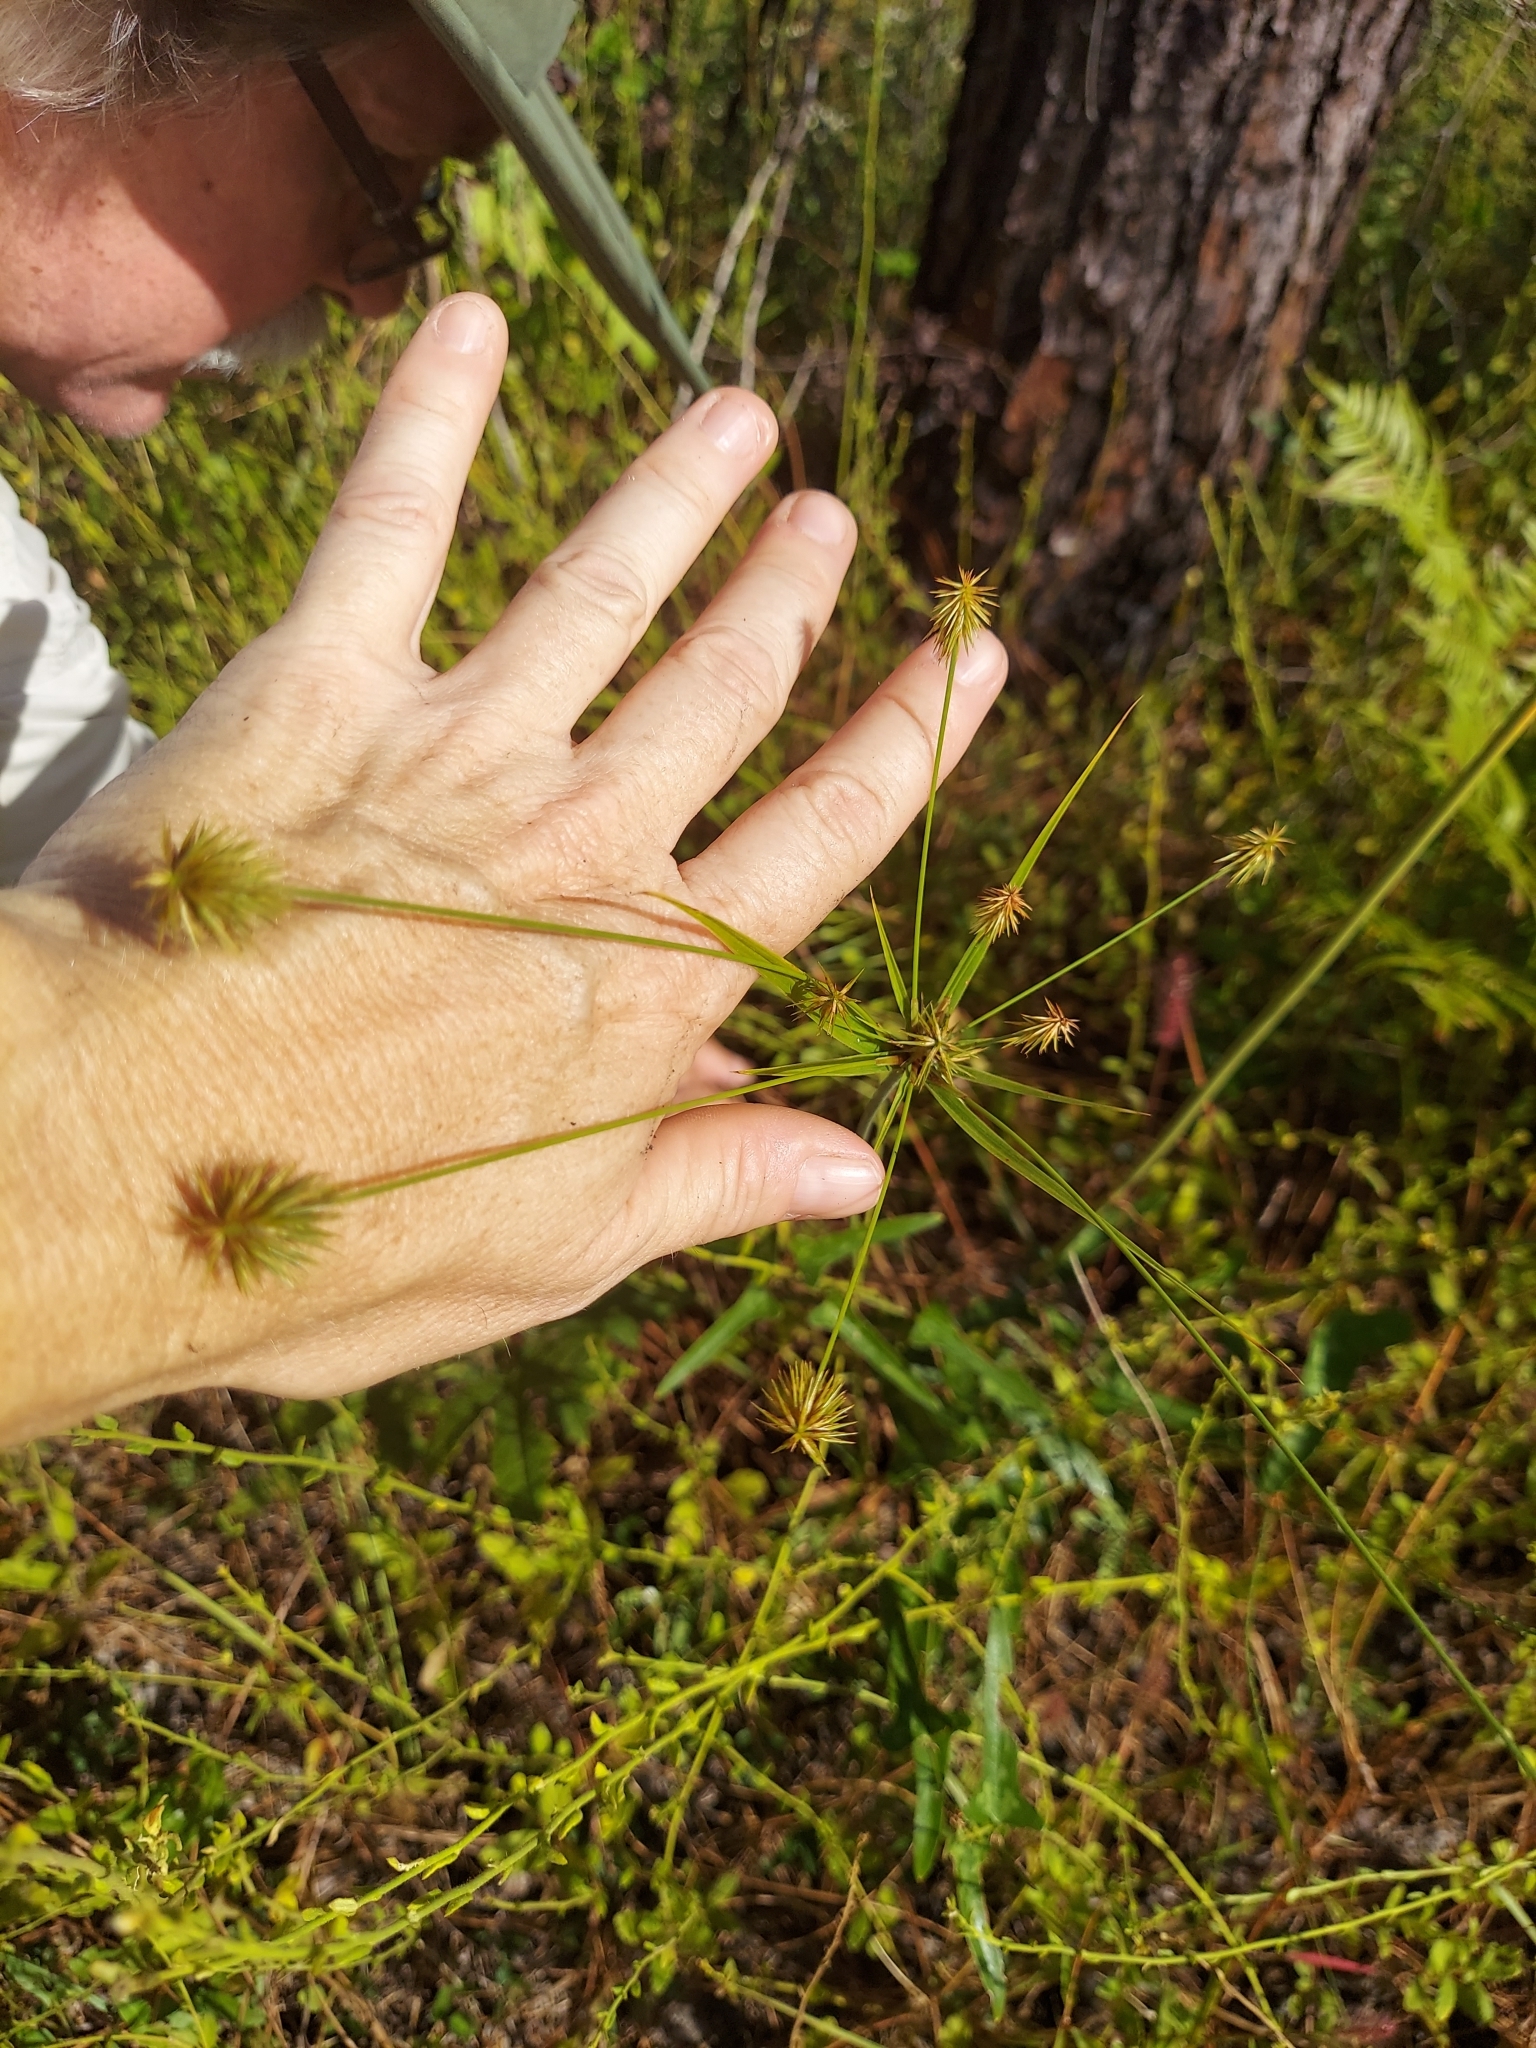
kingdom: Plantae
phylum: Tracheophyta
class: Liliopsida
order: Poales
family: Cyperaceae
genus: Cyperus
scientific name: Cyperus plukenetii
